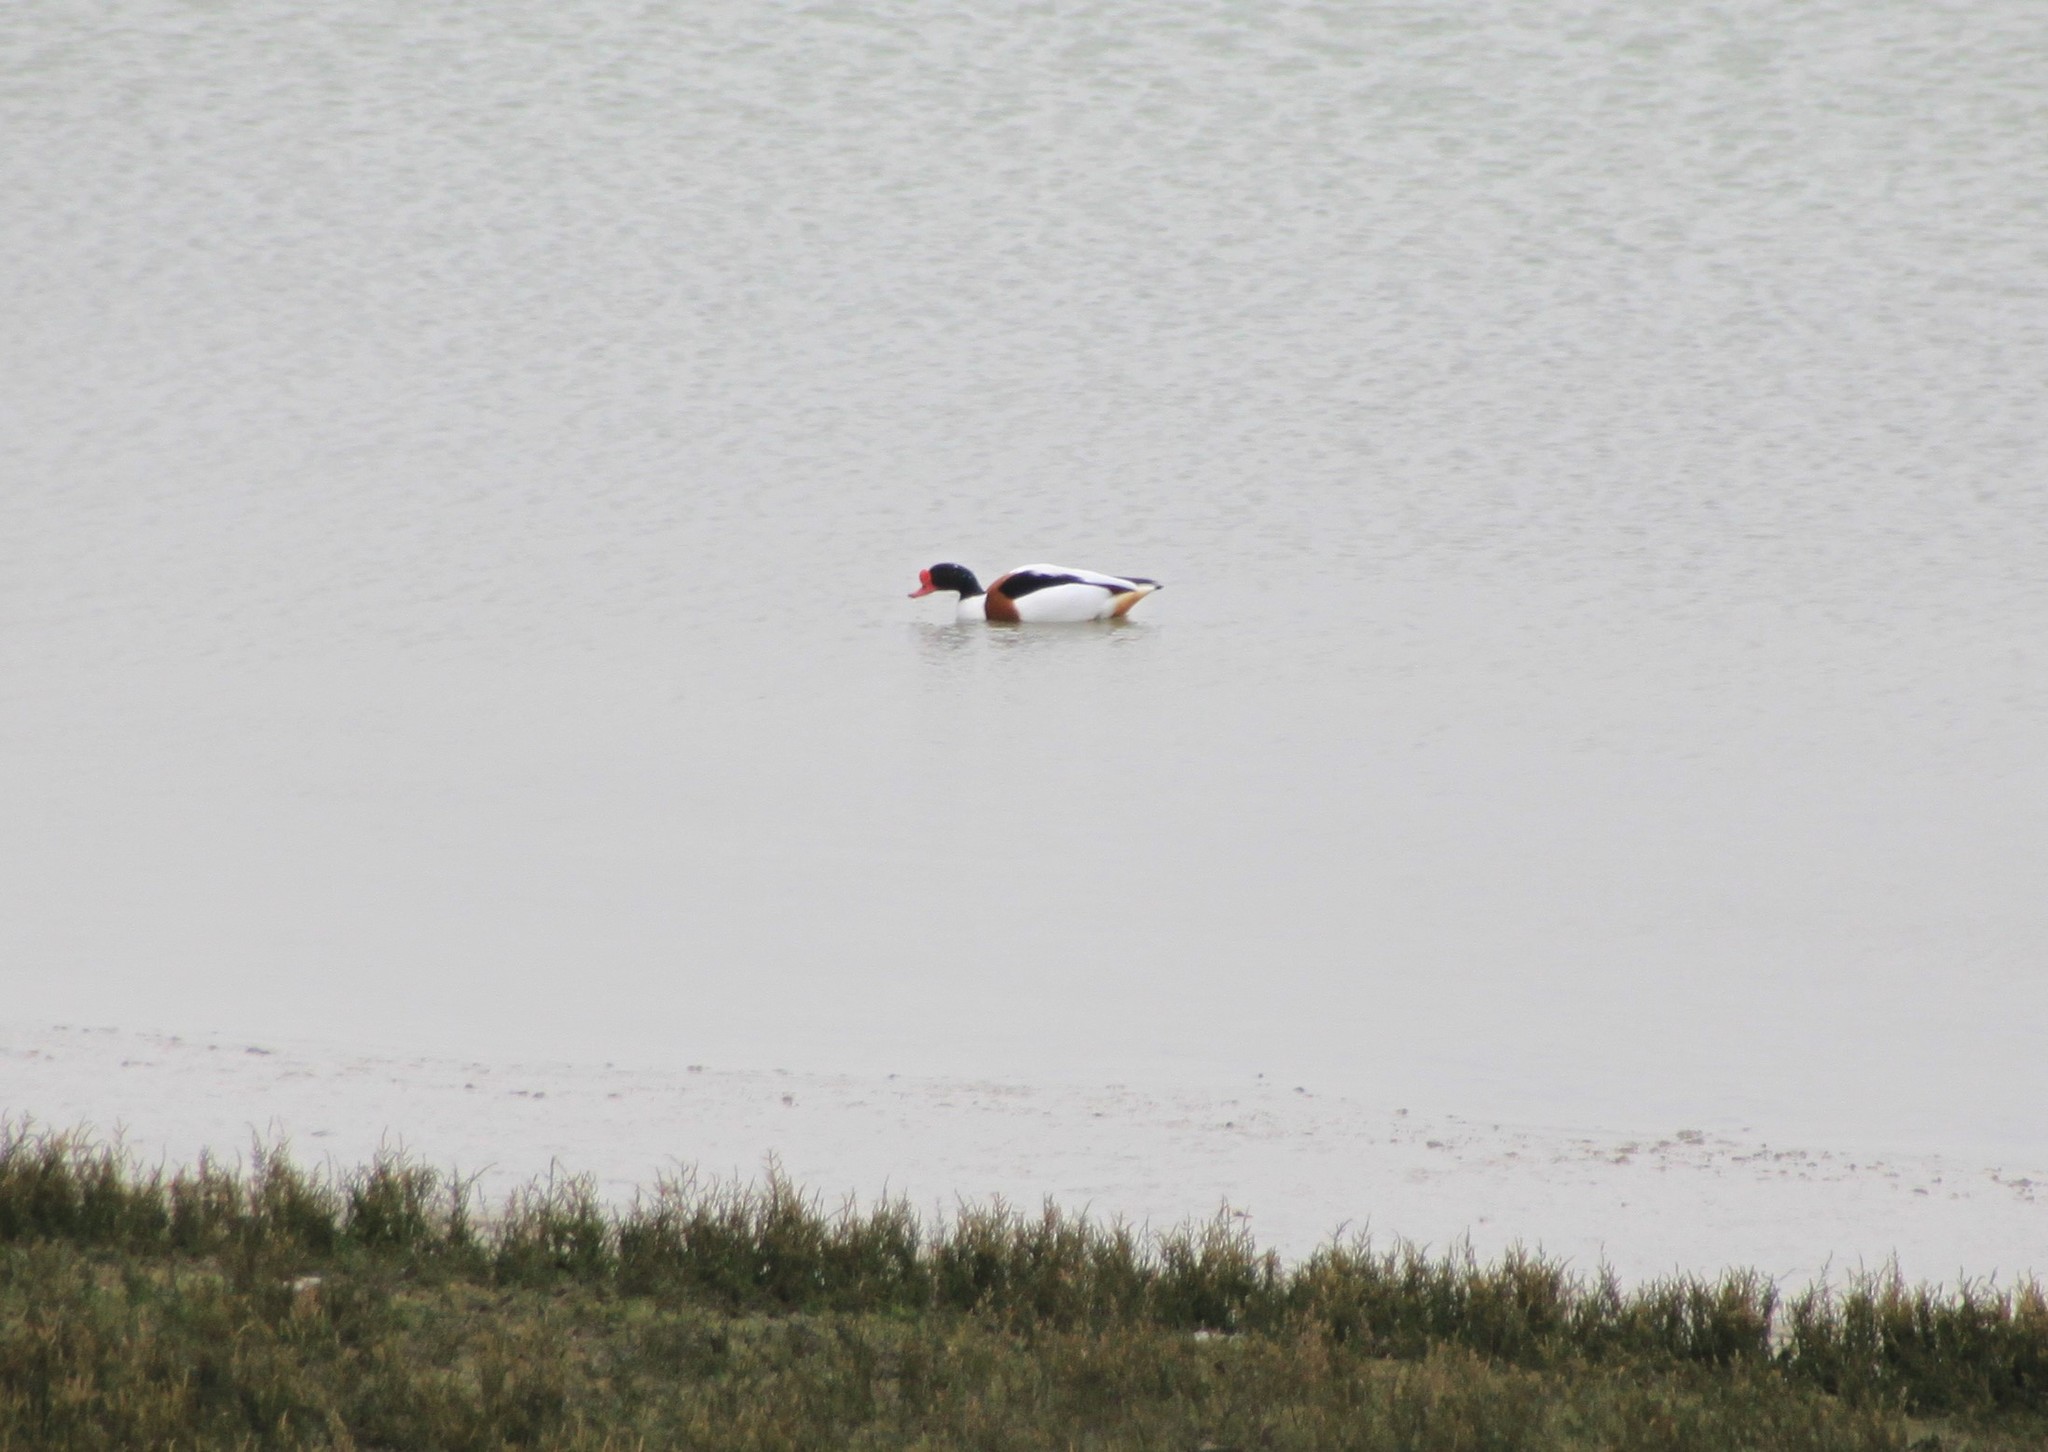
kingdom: Animalia
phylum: Chordata
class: Aves
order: Anseriformes
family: Anatidae
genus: Tadorna
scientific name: Tadorna tadorna
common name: Common shelduck
